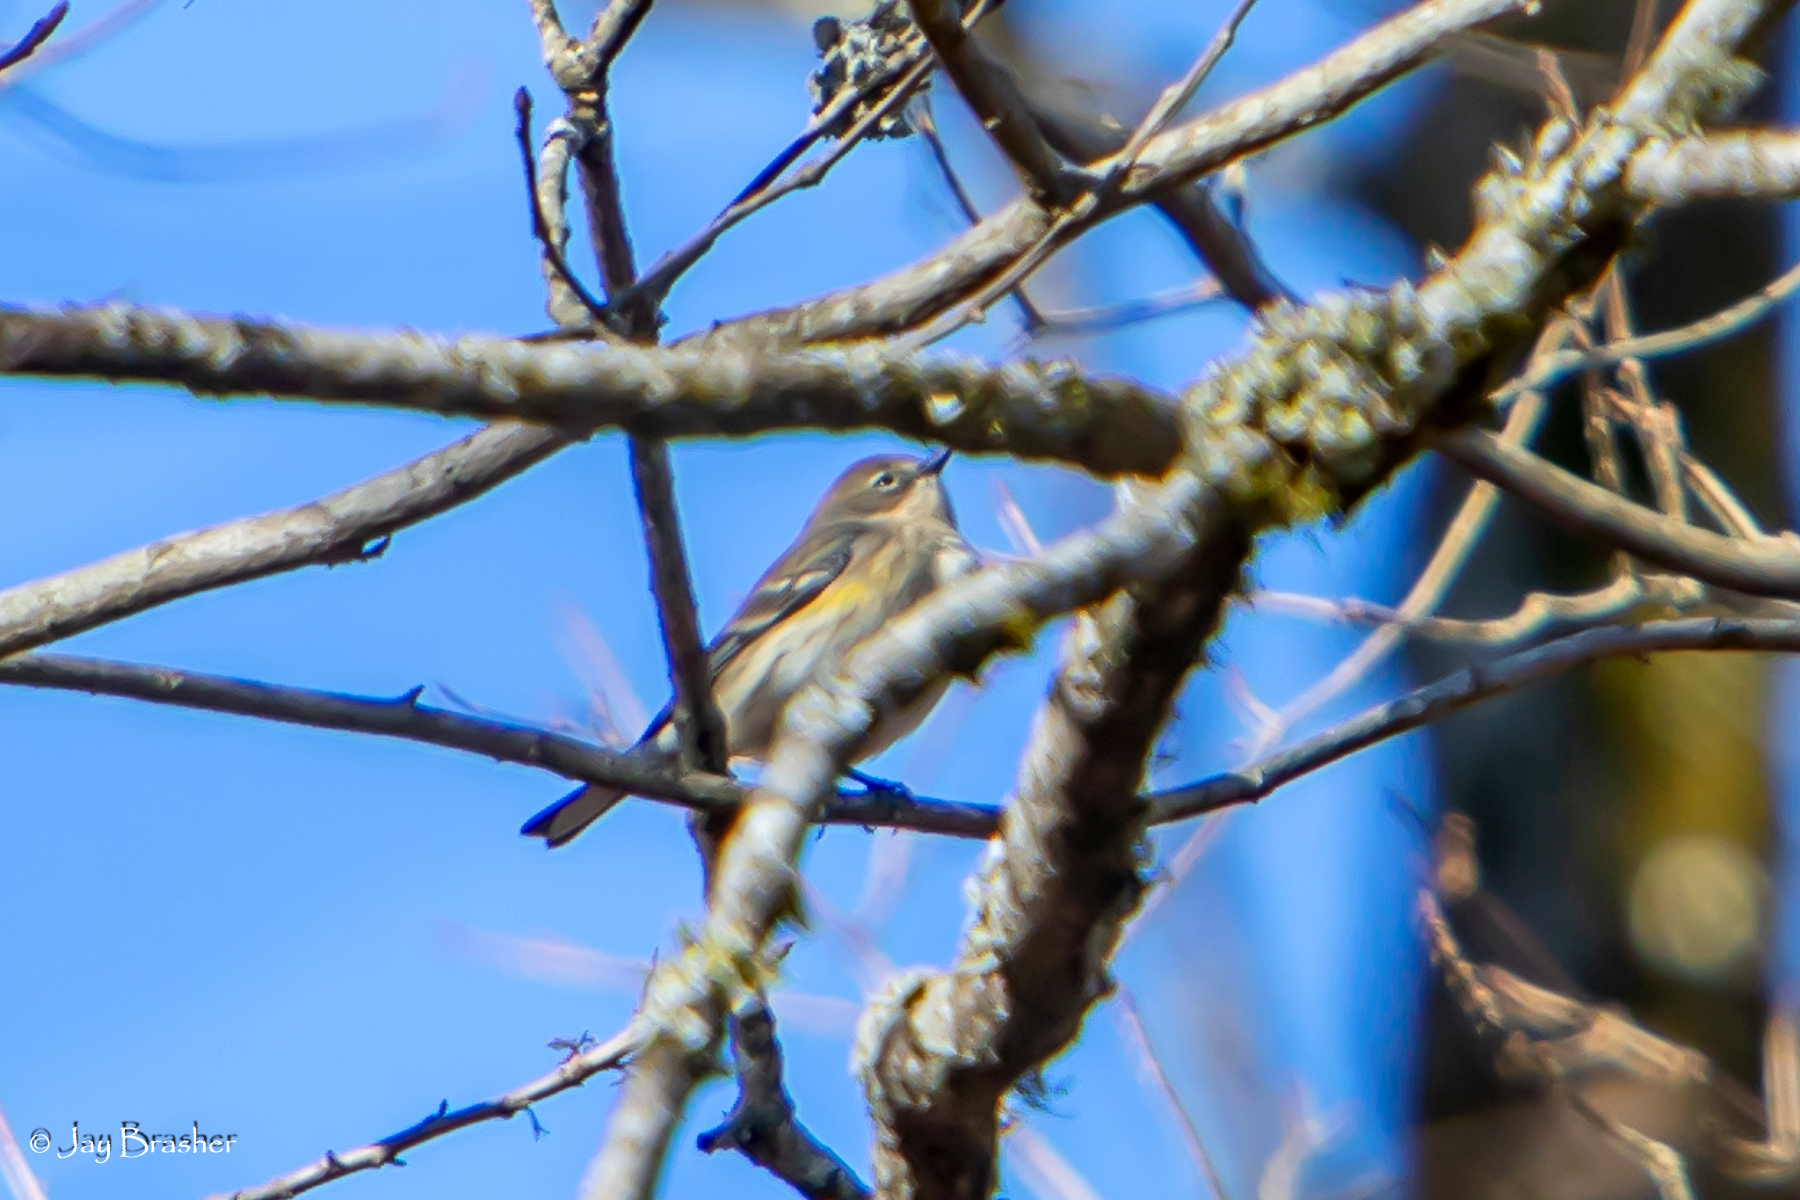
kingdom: Animalia
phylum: Chordata
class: Aves
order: Passeriformes
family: Parulidae
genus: Setophaga
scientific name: Setophaga coronata
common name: Myrtle warbler
